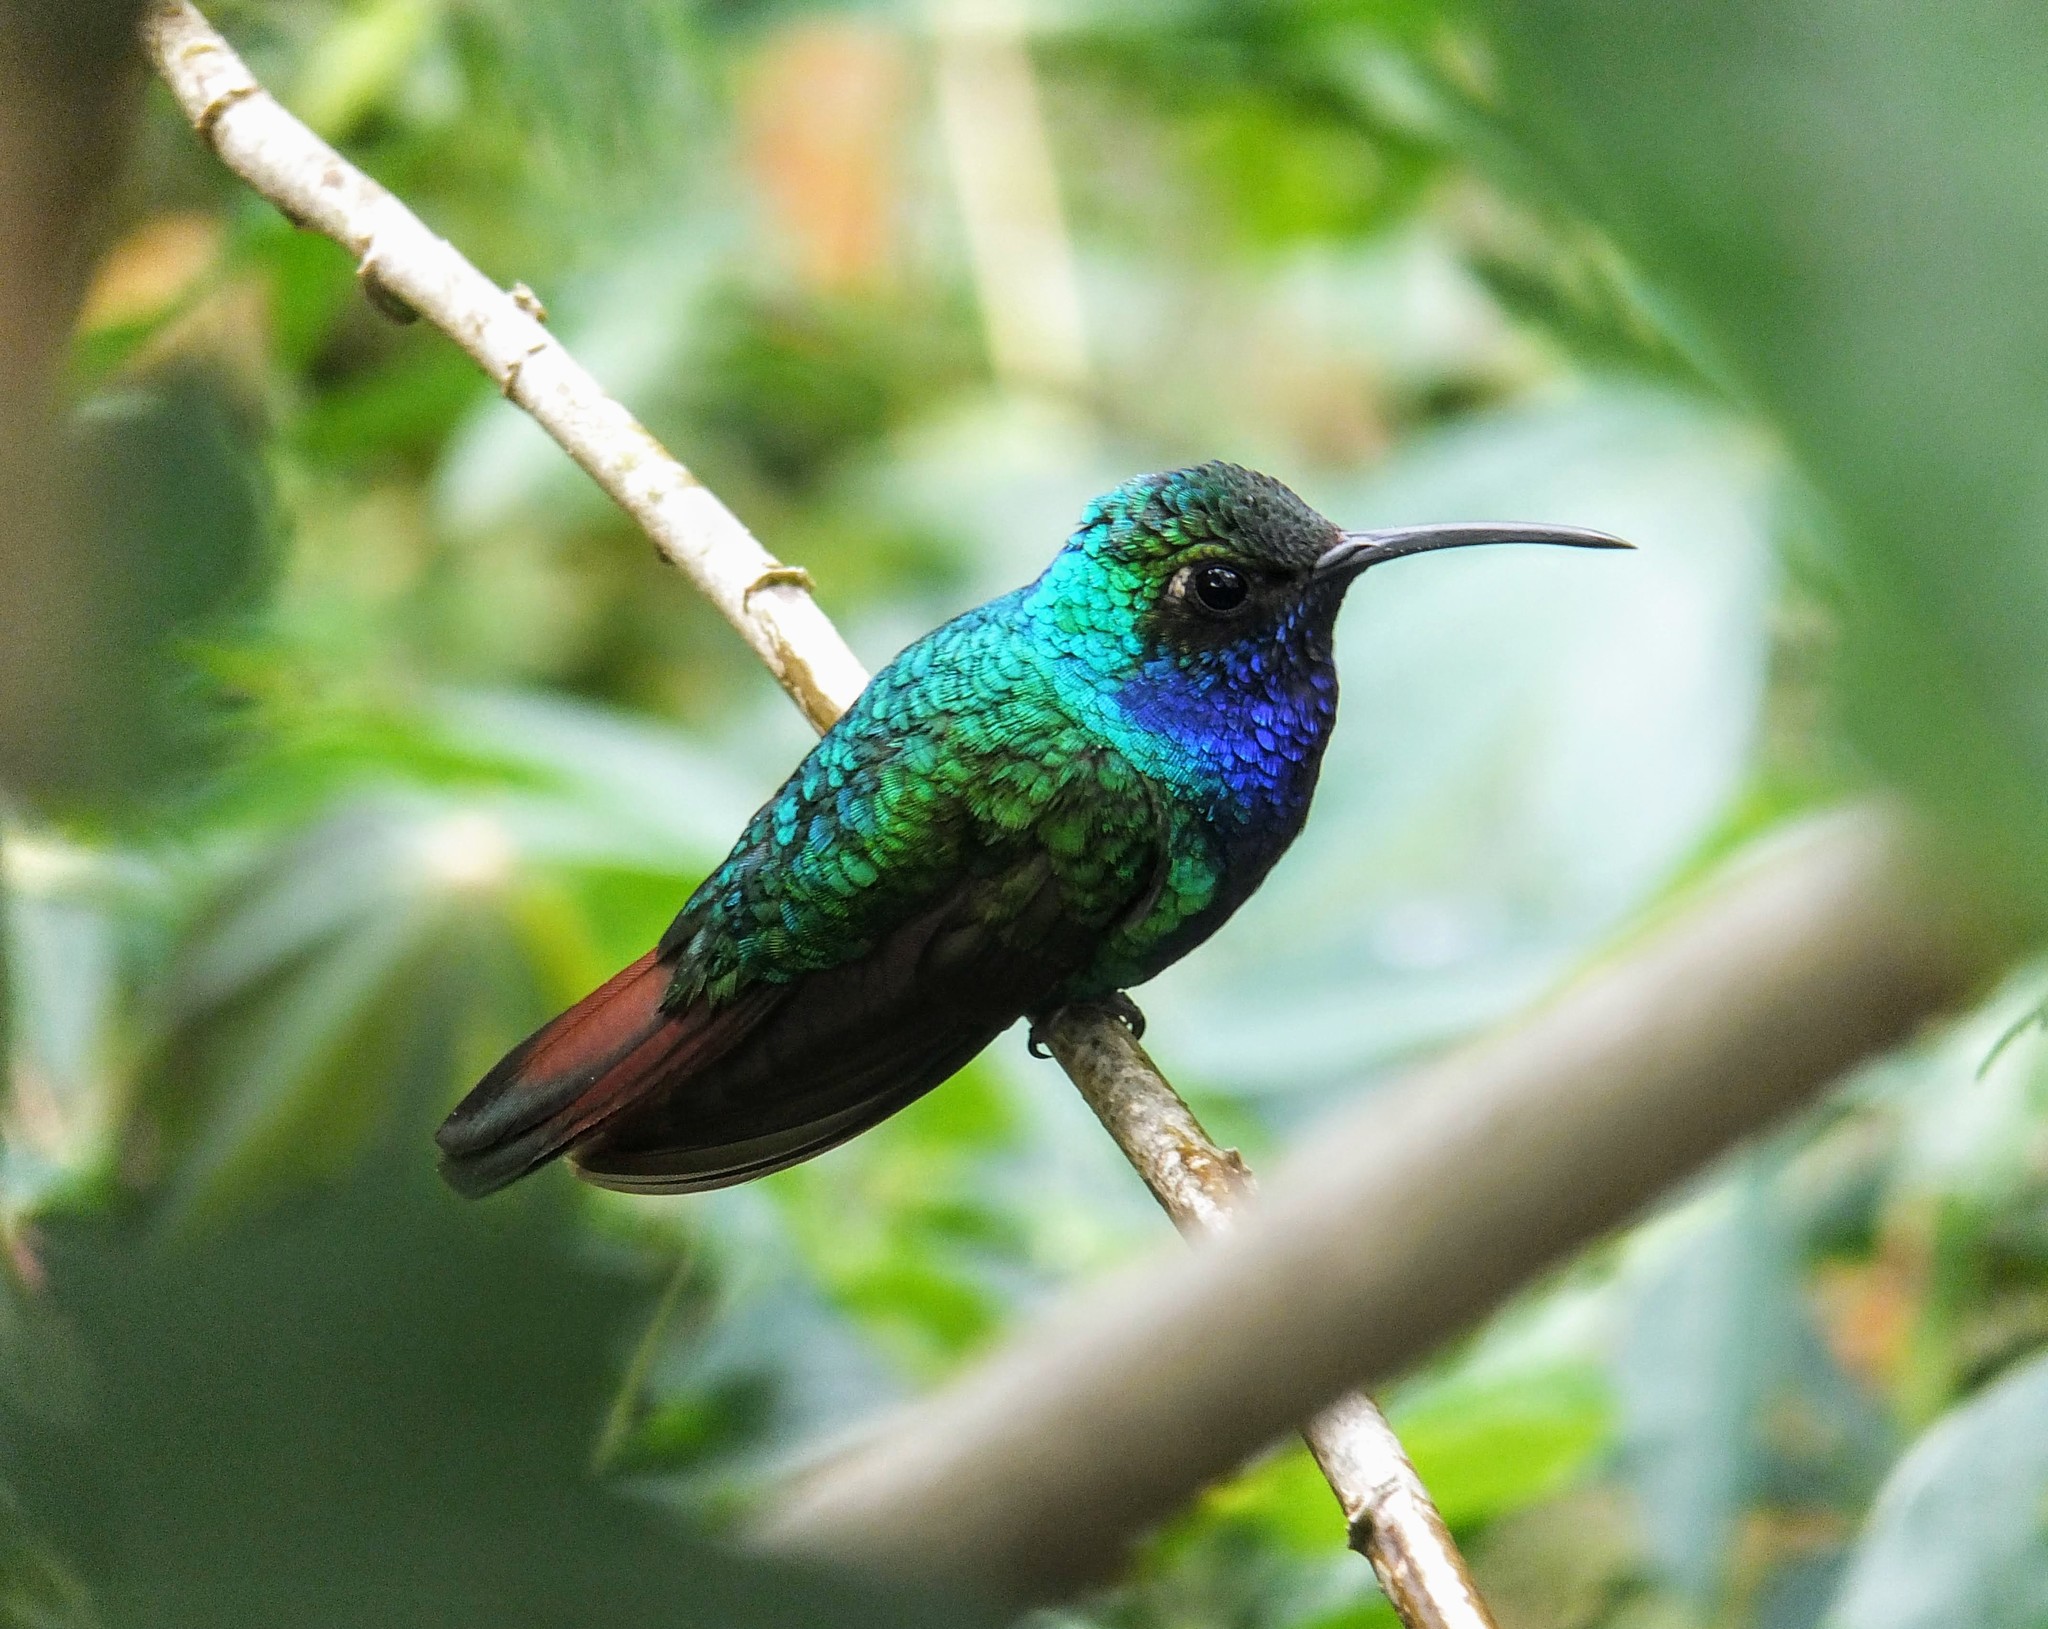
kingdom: Animalia
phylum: Chordata
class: Aves
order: Apodiformes
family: Trochilidae
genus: Anthracothorax
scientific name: Anthracothorax nigricollis
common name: Black-throated mango
